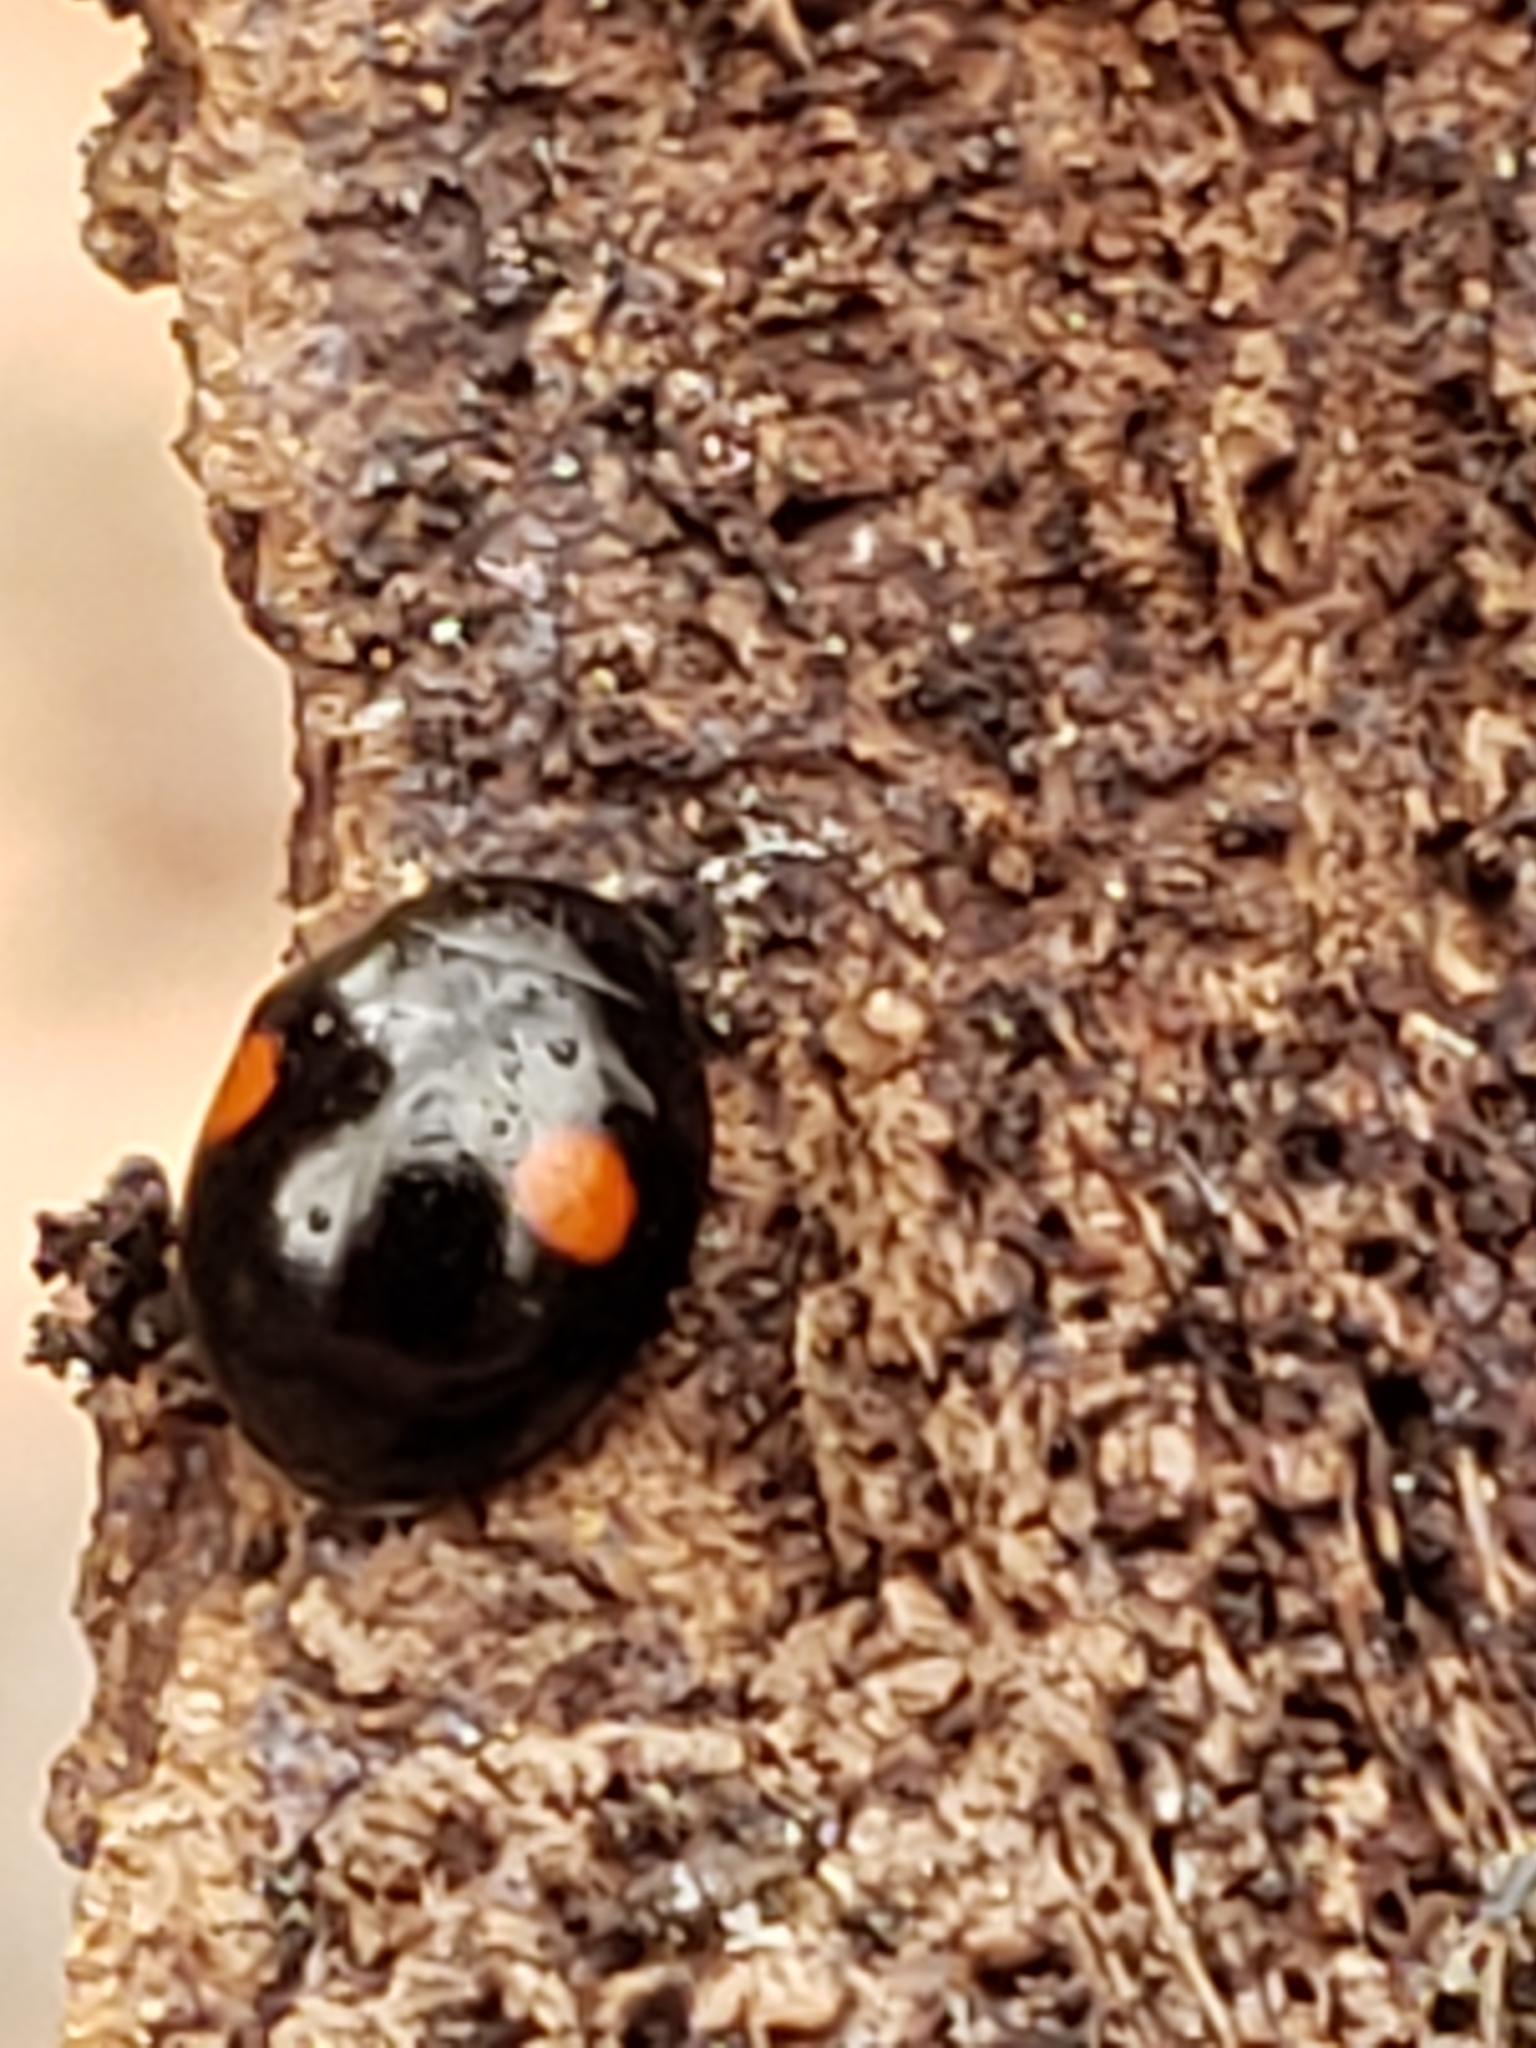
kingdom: Animalia
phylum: Arthropoda
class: Insecta
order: Coleoptera
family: Coccinellidae
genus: Hyperaspis
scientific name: Hyperaspis
